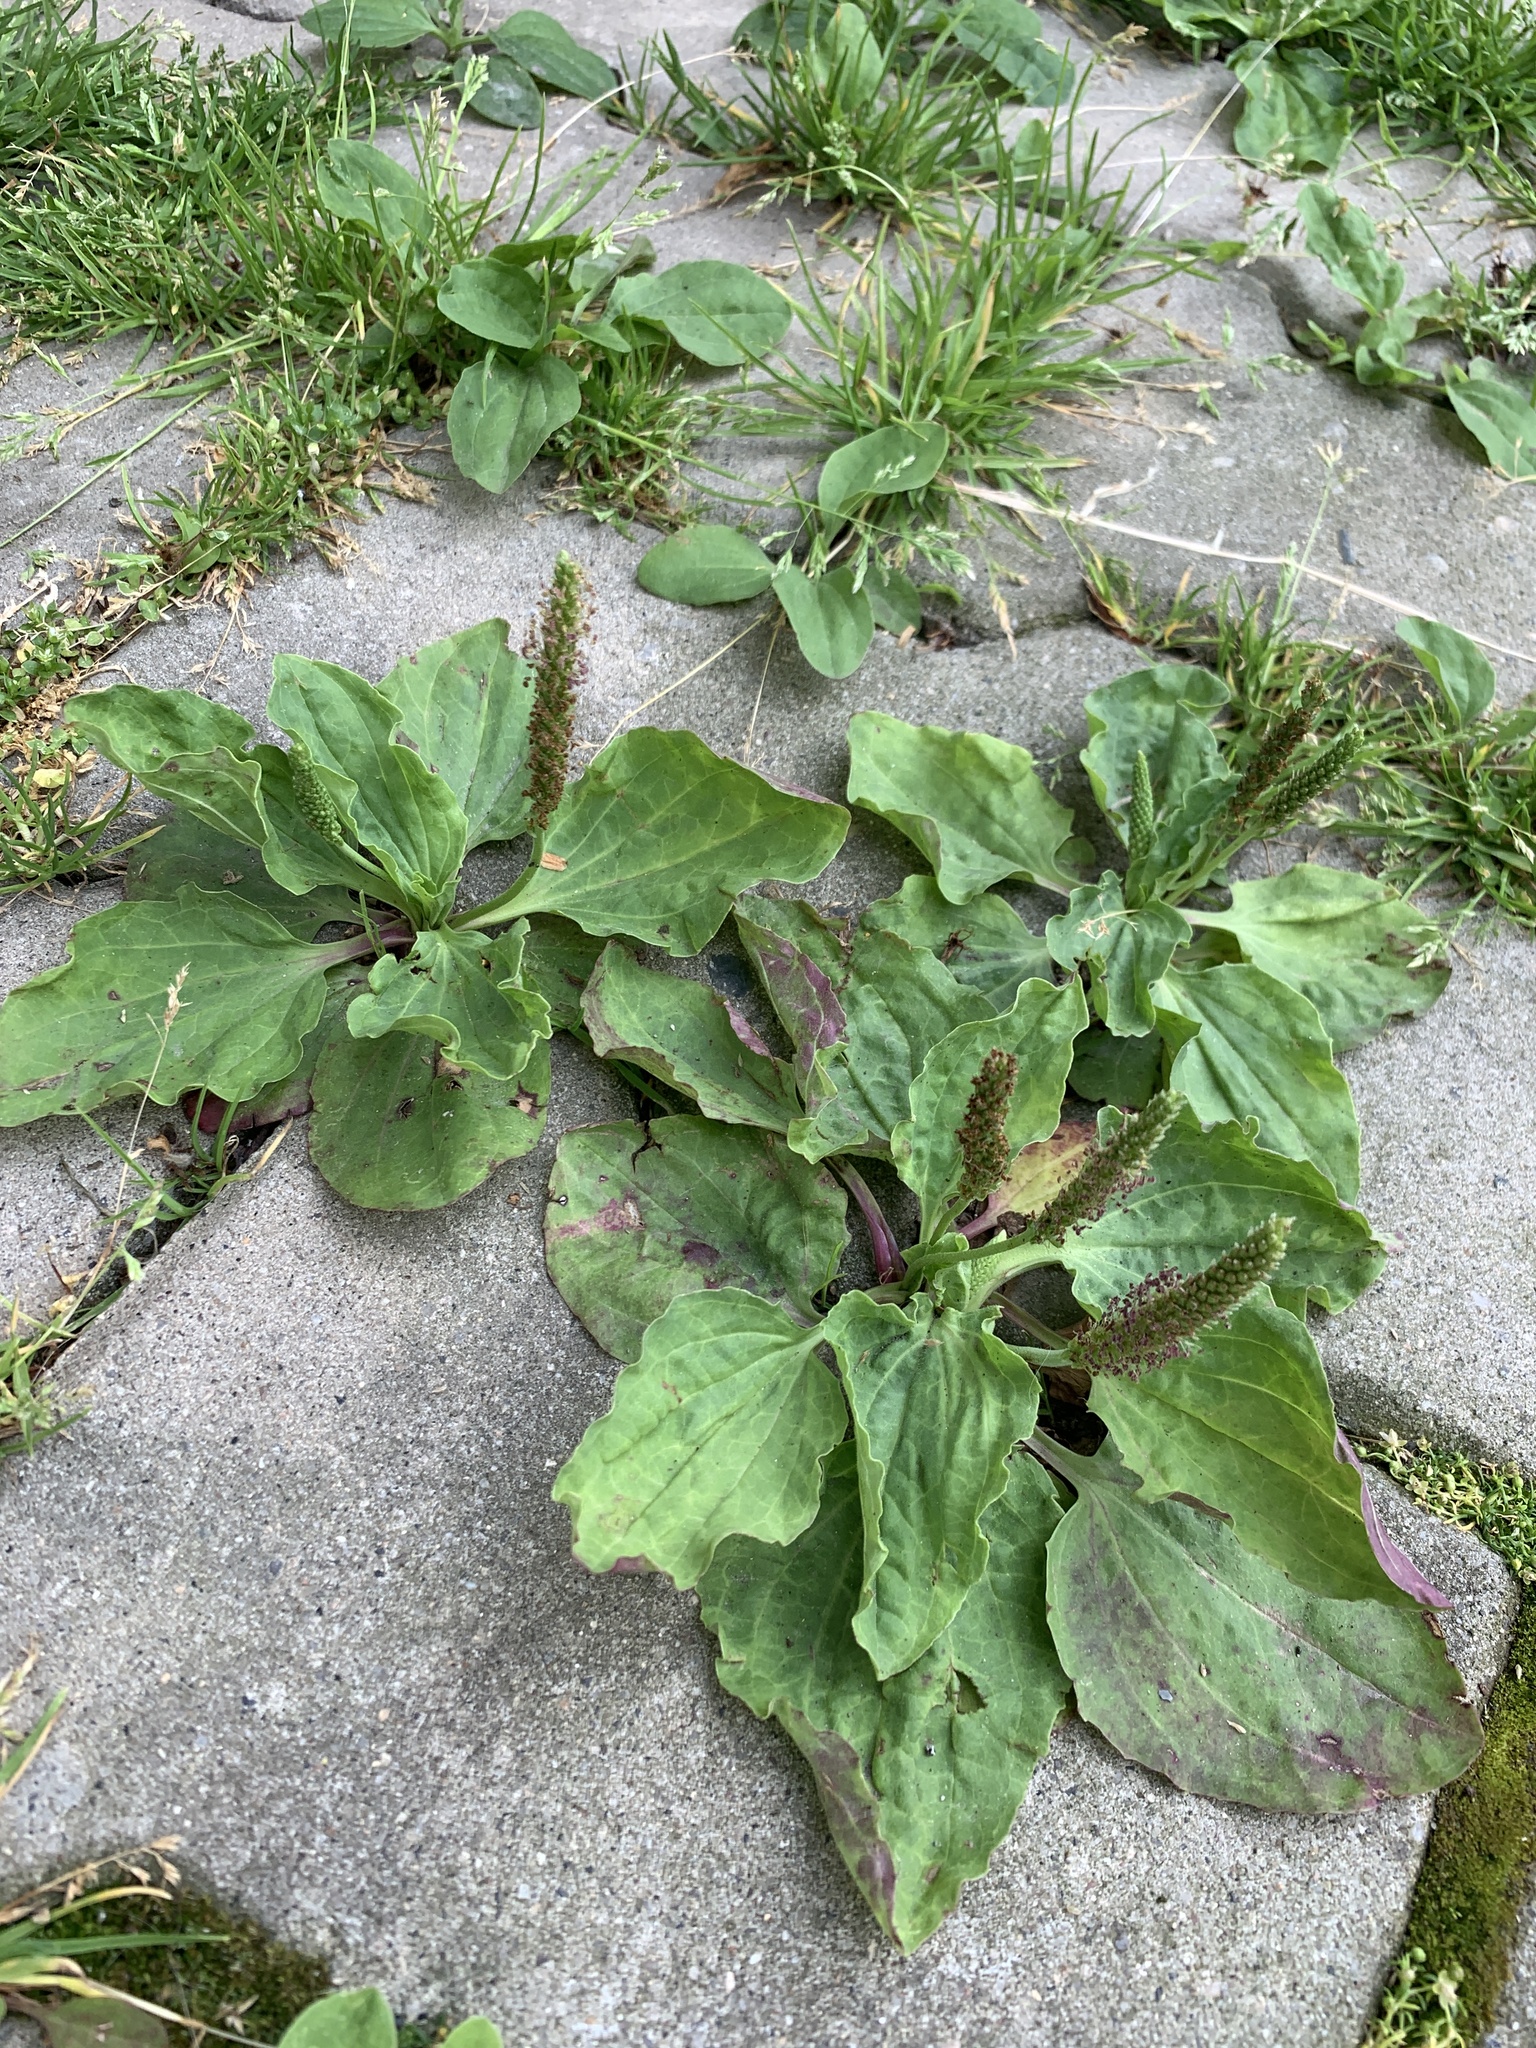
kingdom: Plantae
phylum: Tracheophyta
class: Magnoliopsida
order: Lamiales
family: Plantaginaceae
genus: Plantago
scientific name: Plantago major
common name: Common plantain
